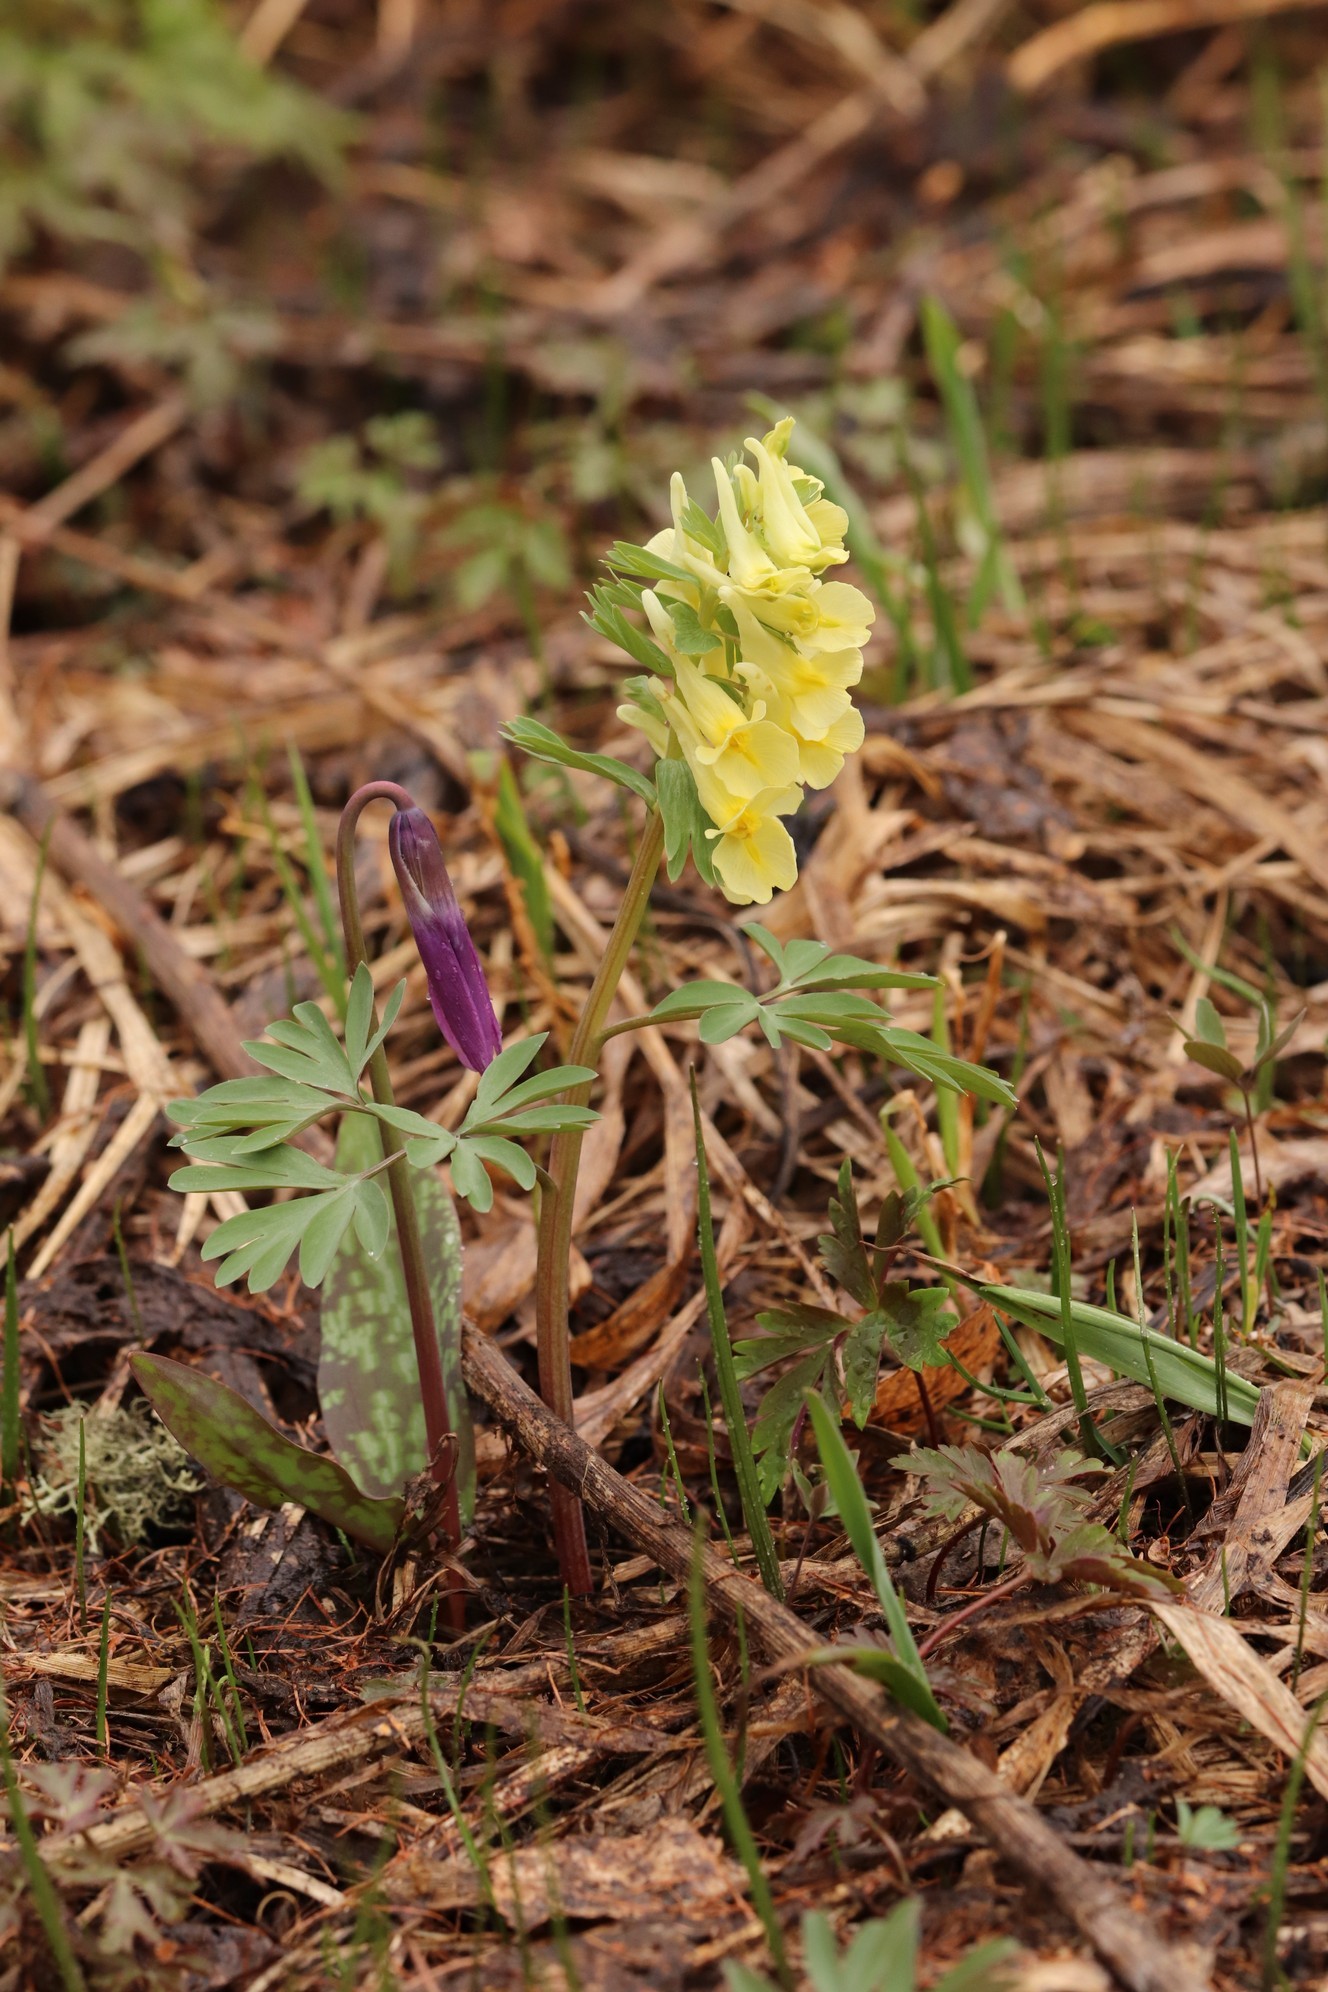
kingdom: Plantae
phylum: Tracheophyta
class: Magnoliopsida
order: Ranunculales
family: Papaveraceae
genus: Corydalis
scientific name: Corydalis bracteata
